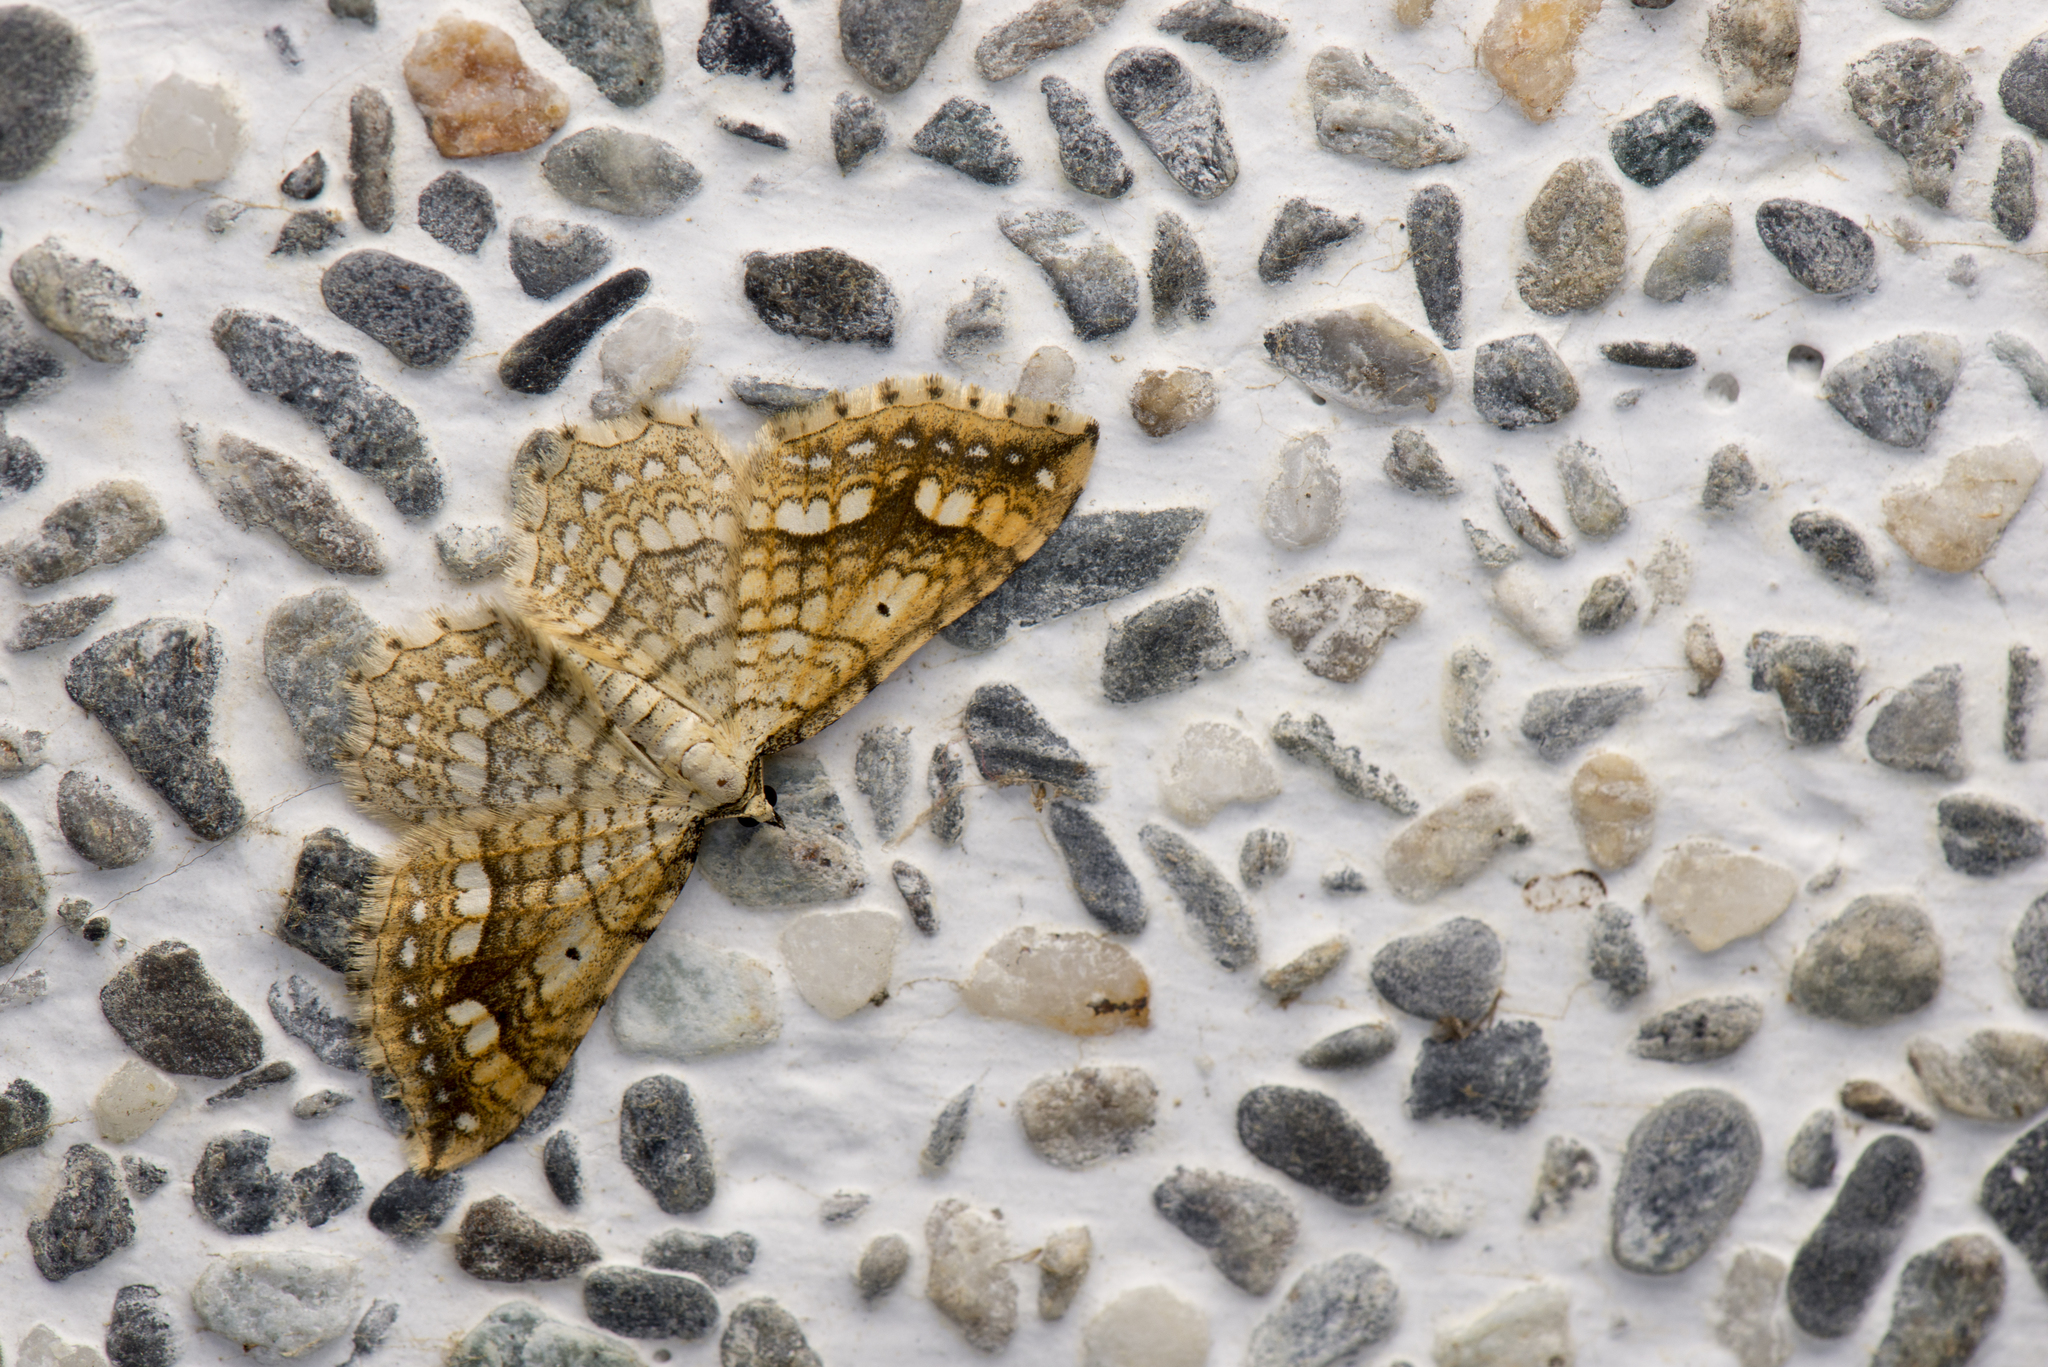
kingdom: Animalia
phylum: Arthropoda
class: Insecta
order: Lepidoptera
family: Geometridae
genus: Laciniodes
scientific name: Laciniodes umbrosus
